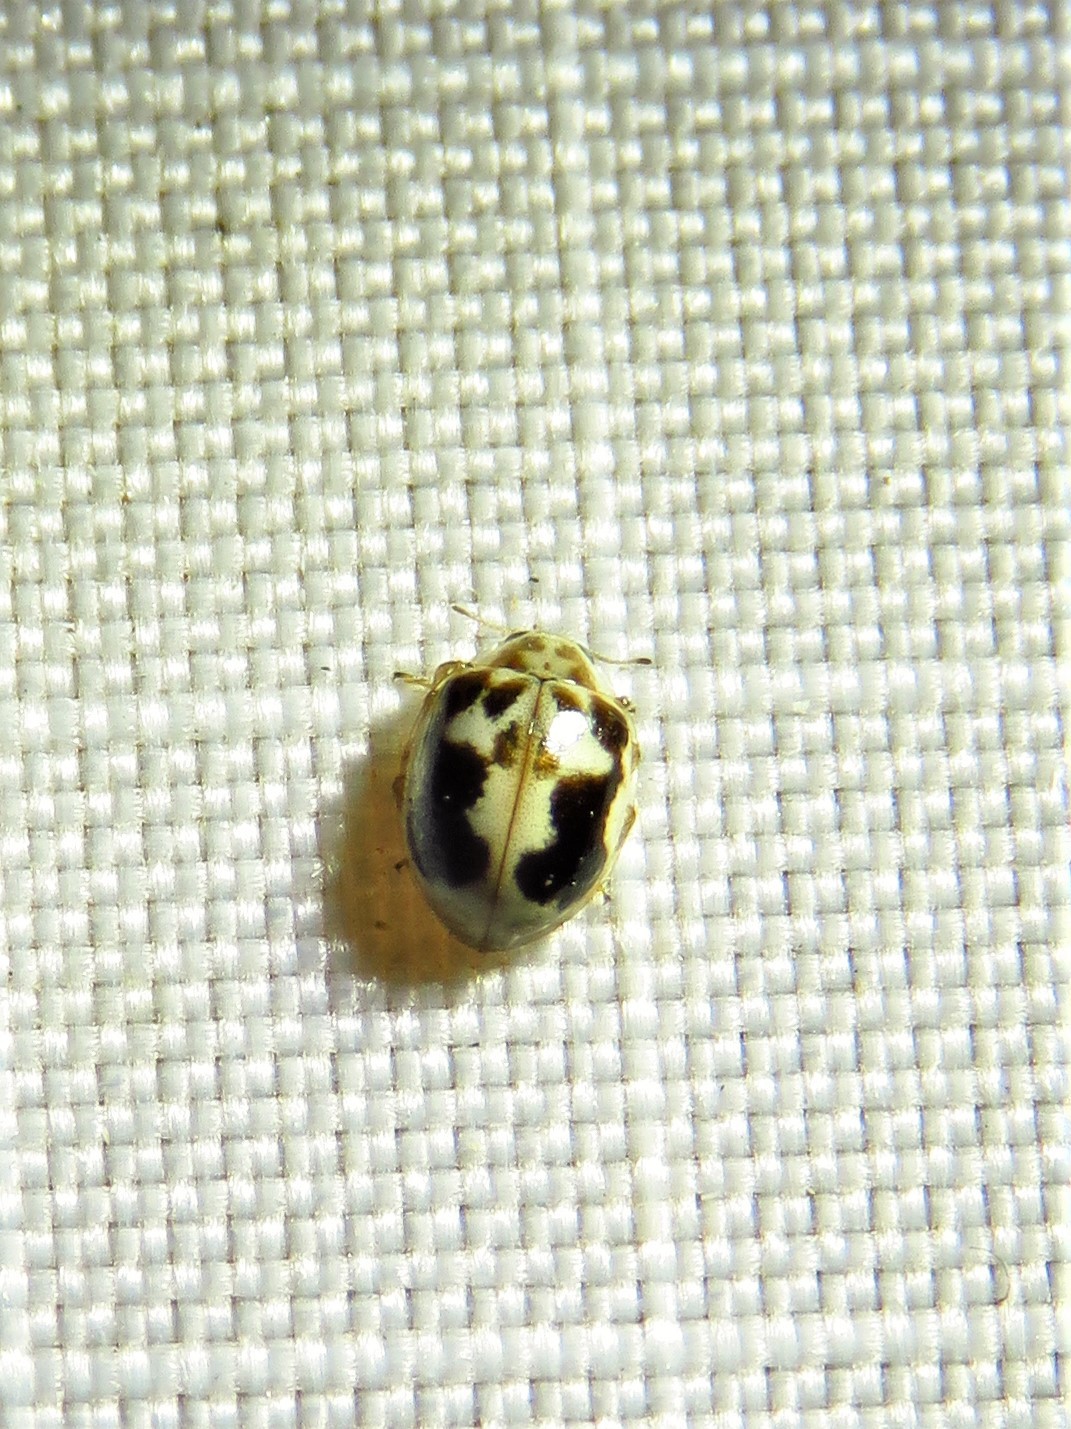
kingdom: Animalia
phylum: Arthropoda
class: Insecta
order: Coleoptera
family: Coccinellidae
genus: Psyllobora
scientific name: Psyllobora renifer
